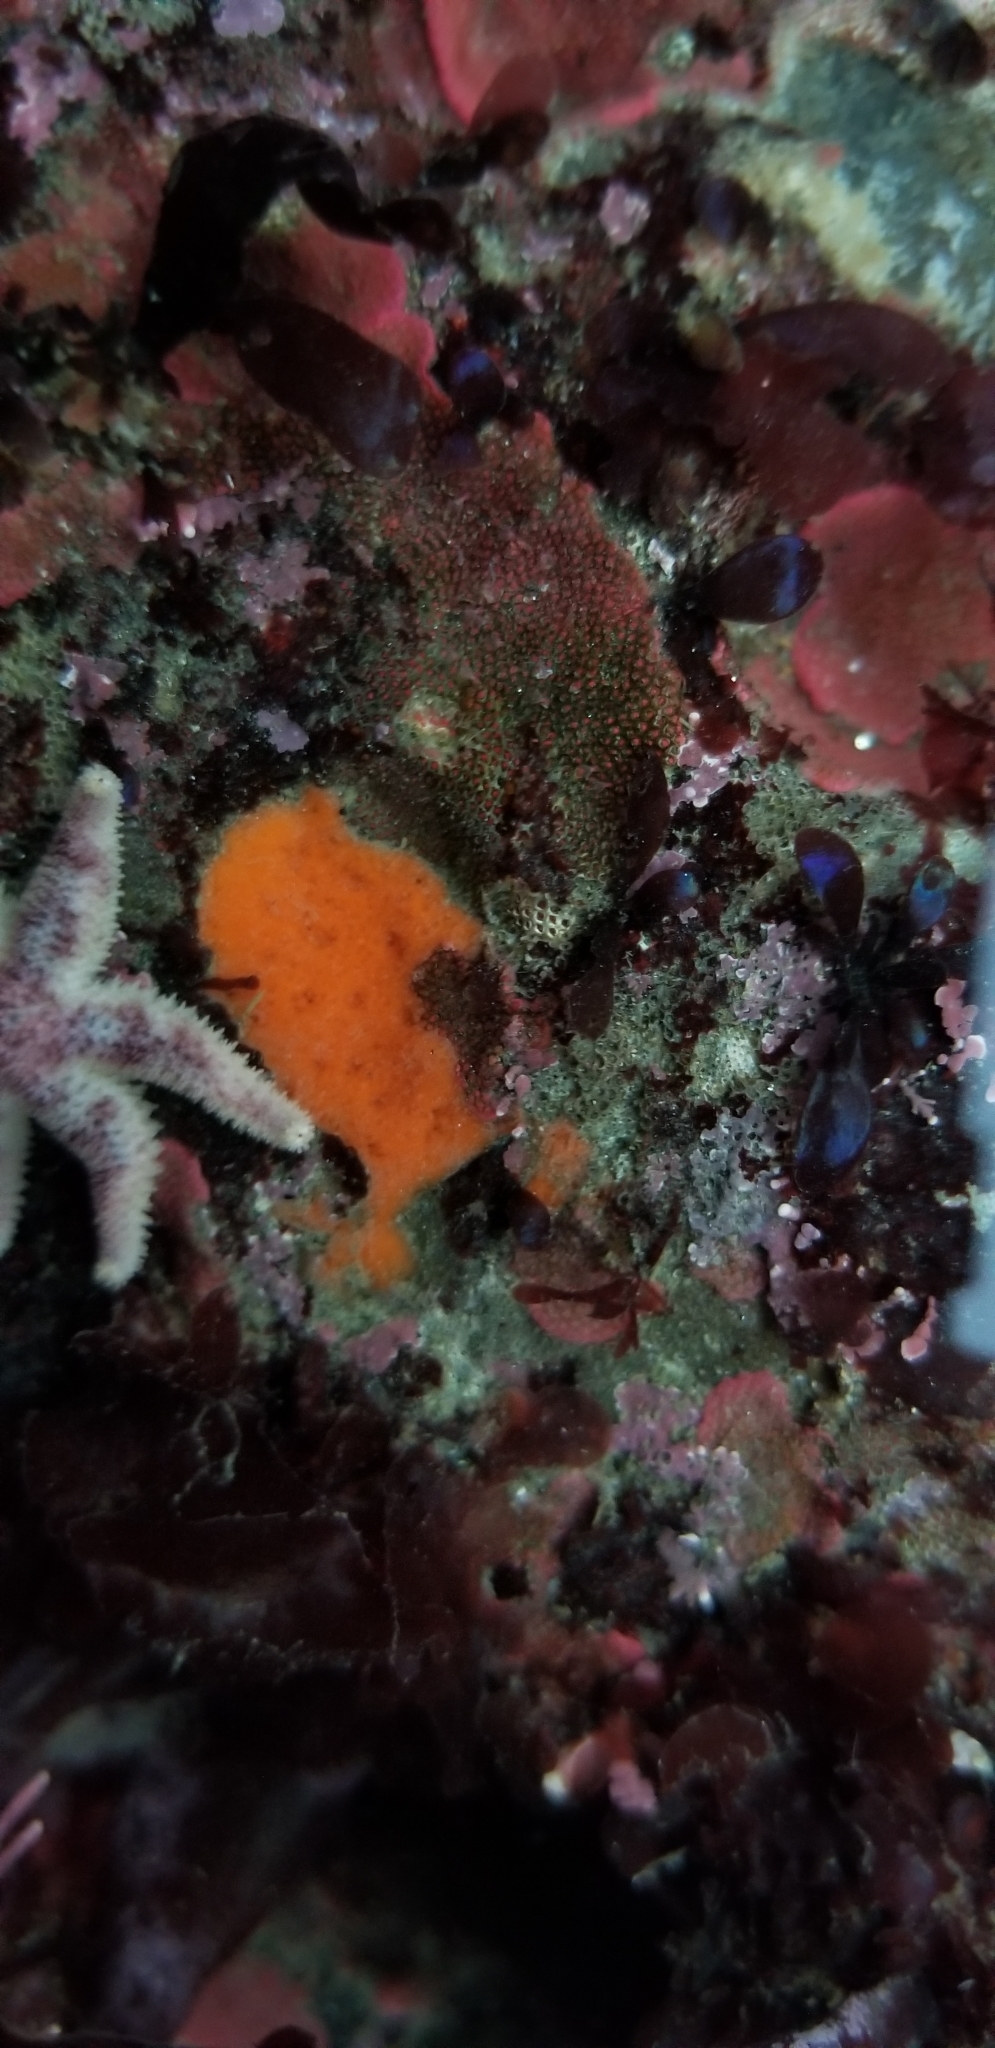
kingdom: Animalia
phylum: Echinodermata
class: Asteroidea
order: Forcipulatida
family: Asteriidae
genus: Leptasterias
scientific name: Leptasterias hexactis
